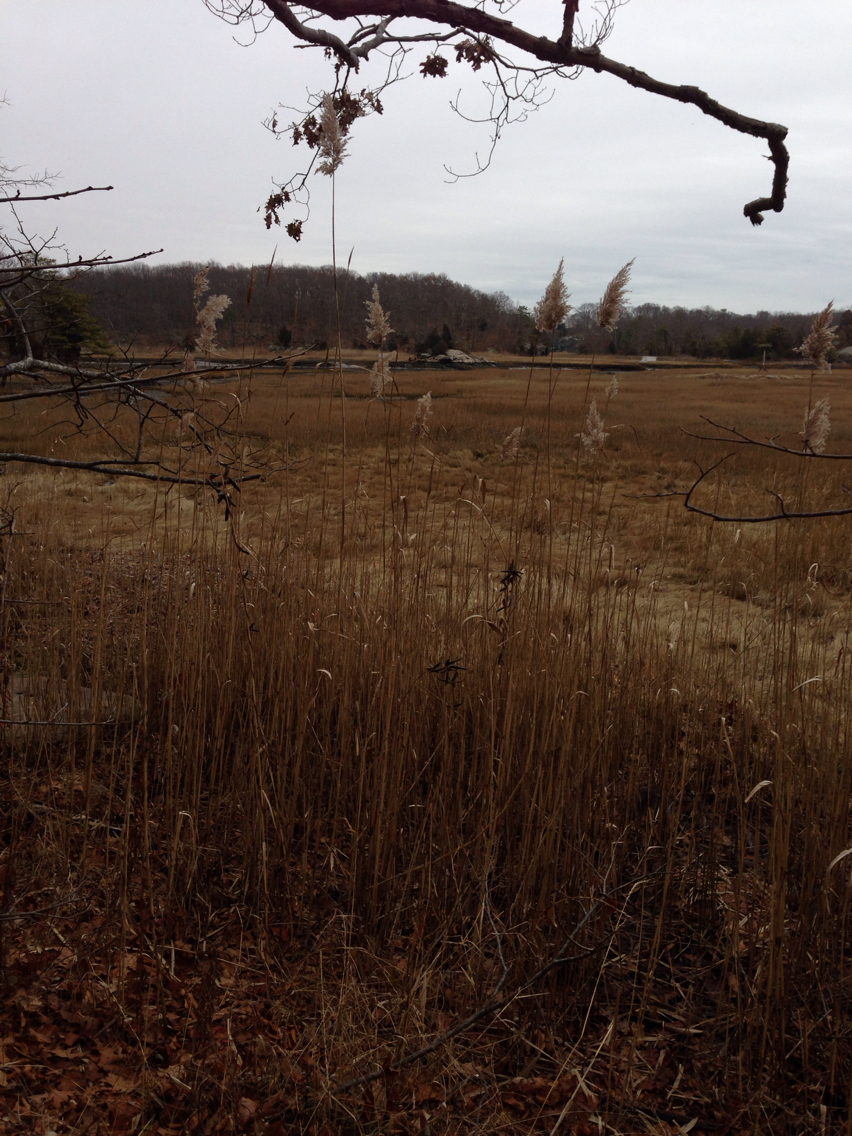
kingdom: Plantae
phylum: Tracheophyta
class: Liliopsida
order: Poales
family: Poaceae
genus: Phragmites
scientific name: Phragmites australis
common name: Common reed
